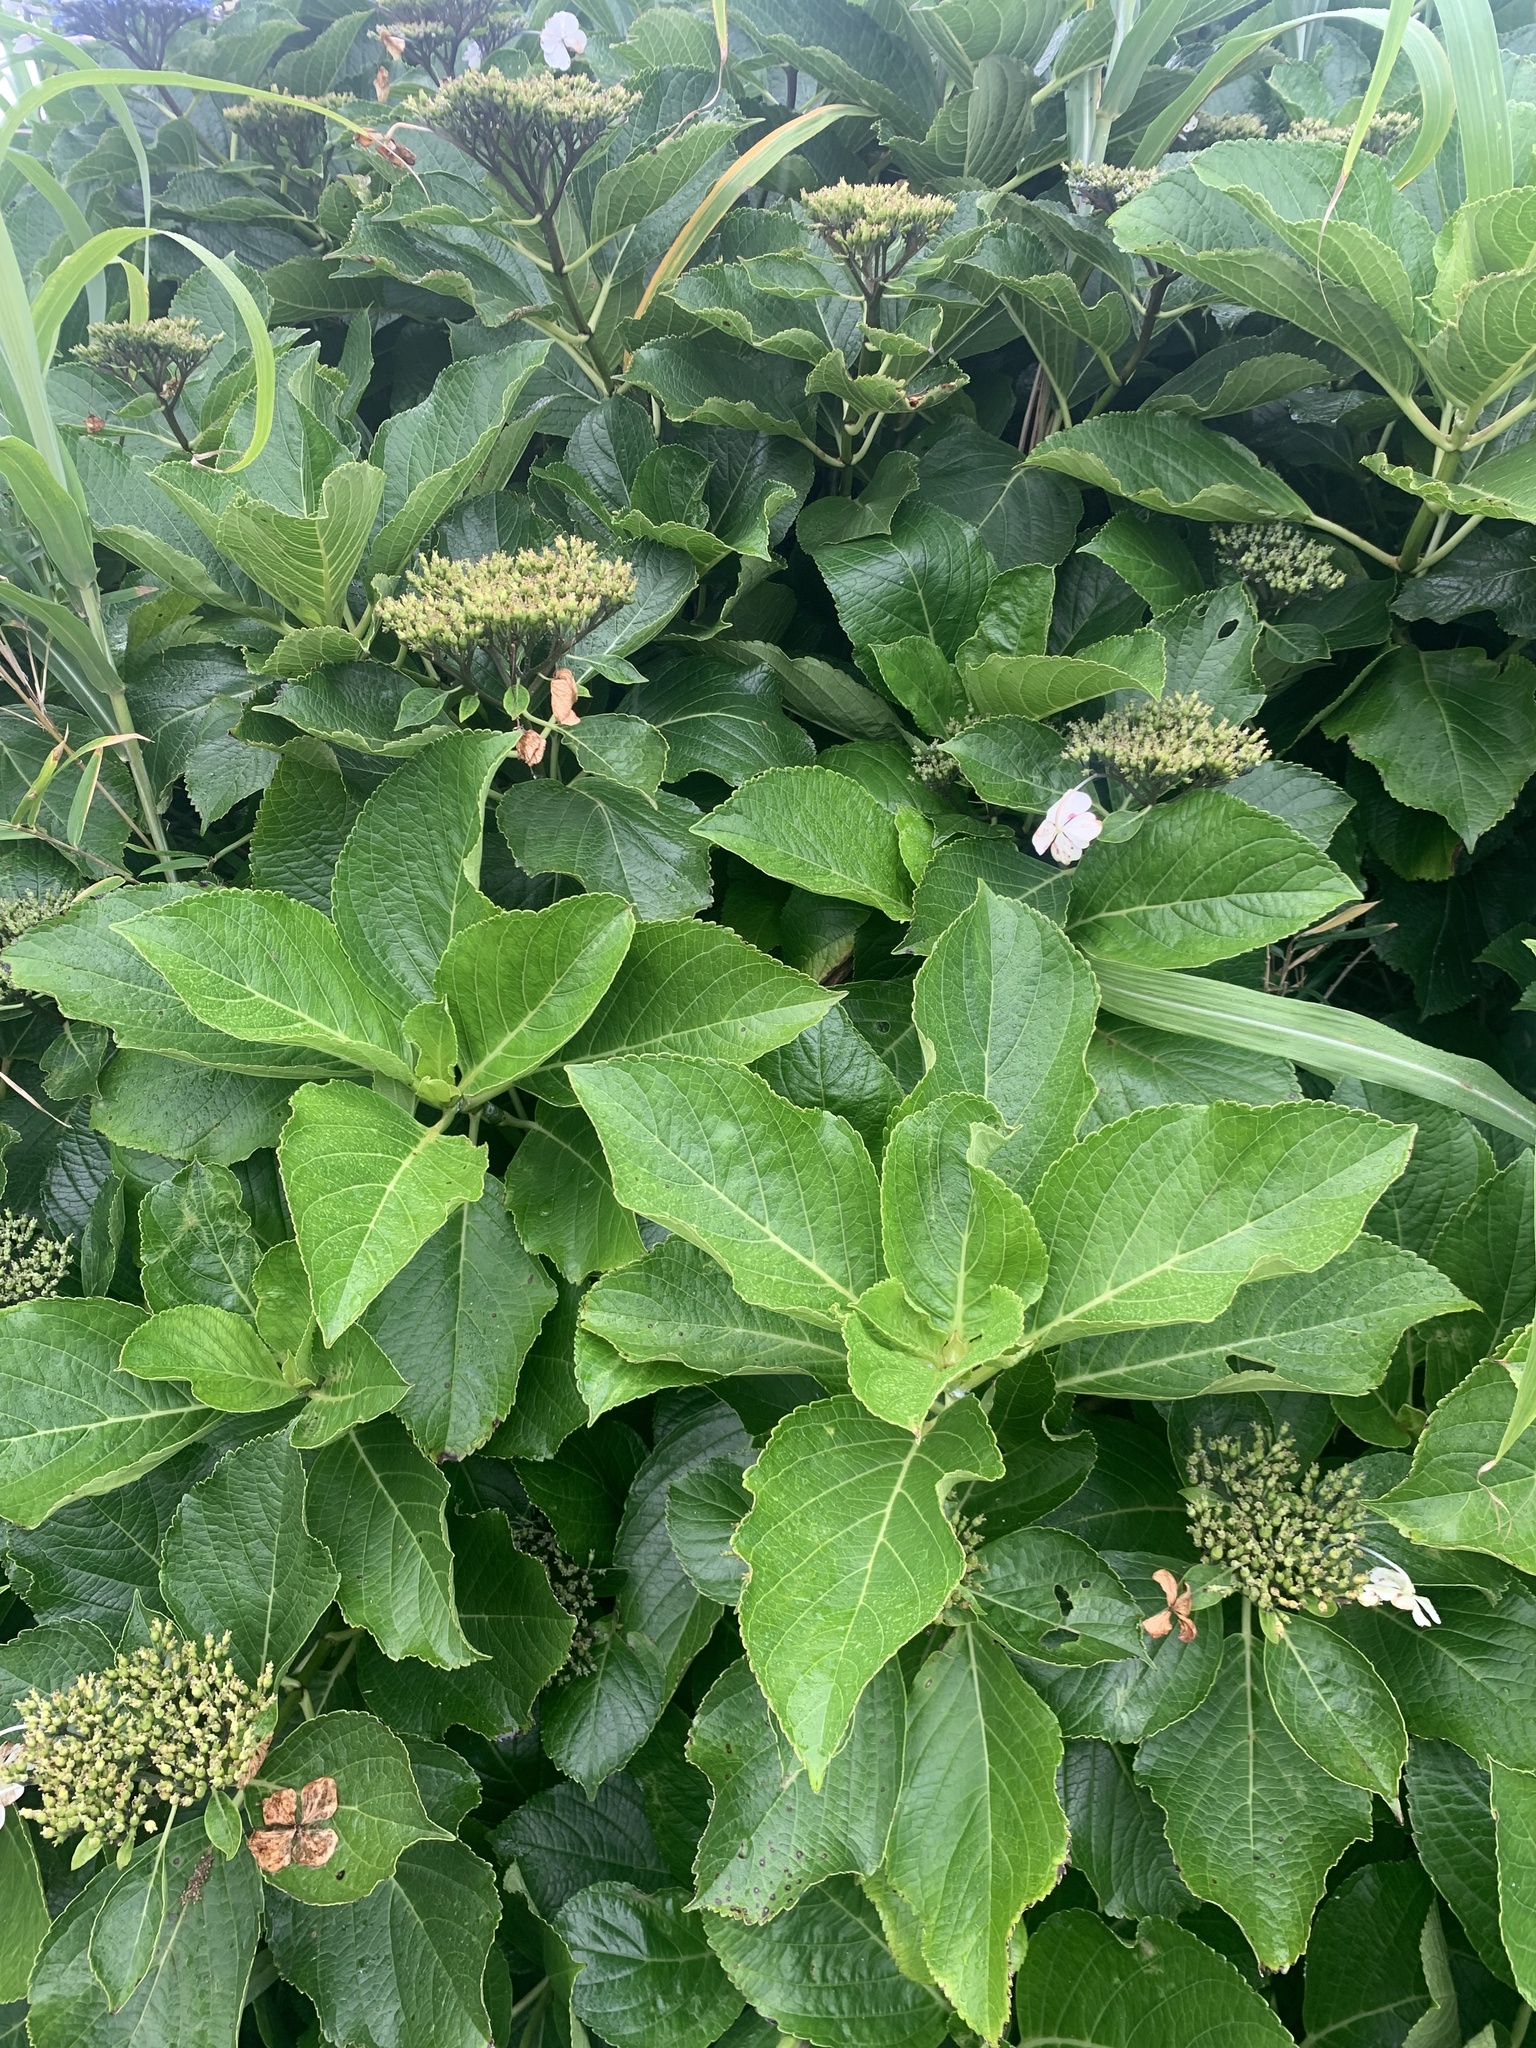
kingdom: Plantae
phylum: Tracheophyta
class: Magnoliopsida
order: Cornales
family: Hydrangeaceae
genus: Hydrangea
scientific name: Hydrangea macrophylla
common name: Hydrangea
